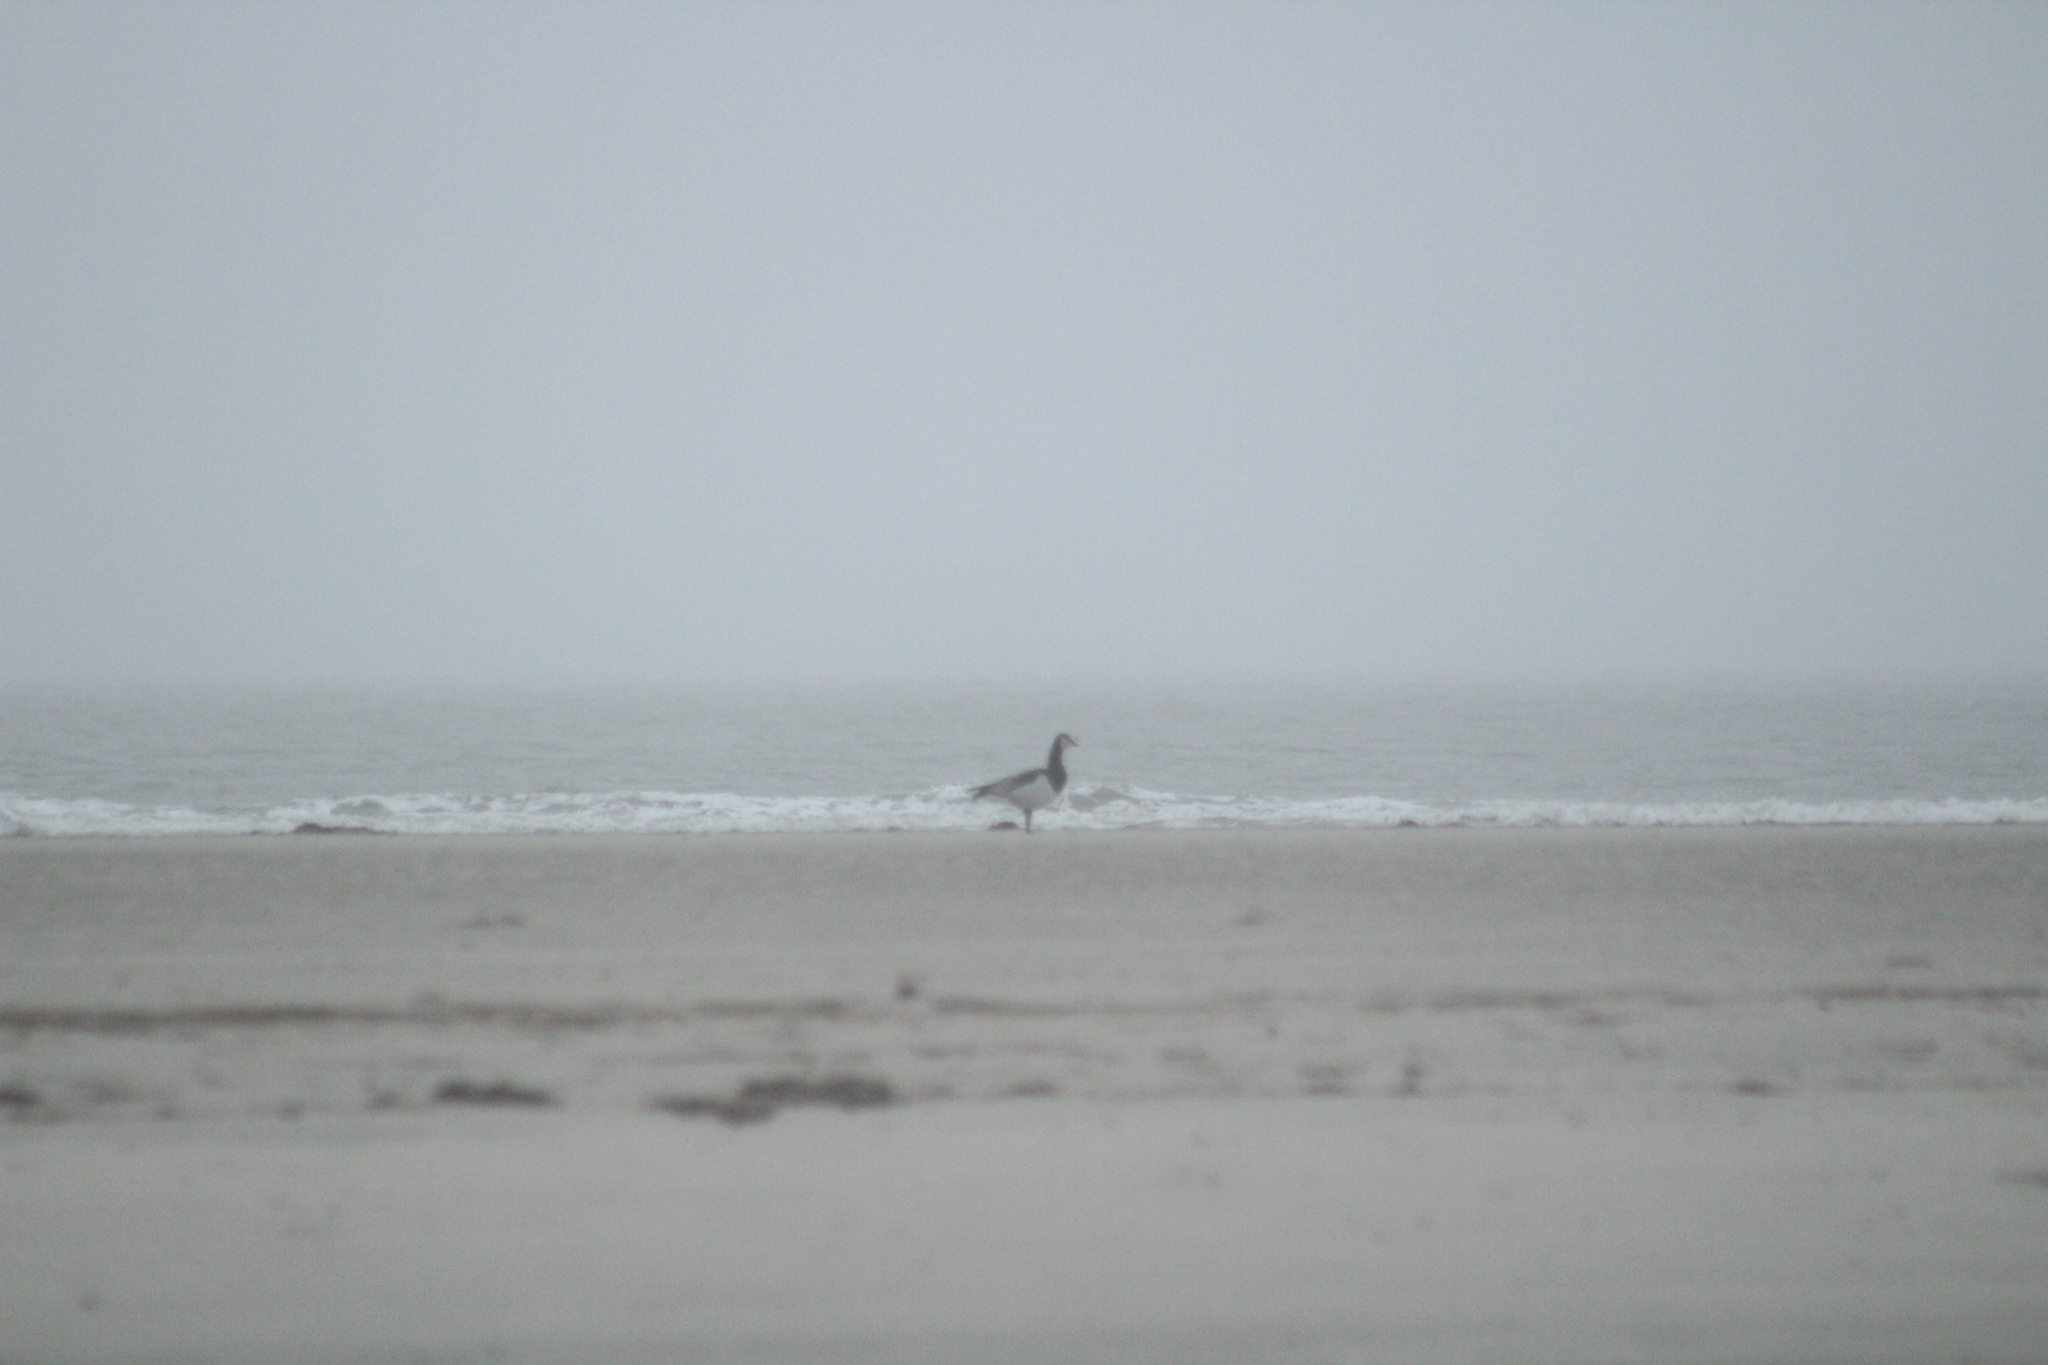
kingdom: Animalia
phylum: Chordata
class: Aves
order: Anseriformes
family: Anatidae
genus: Branta
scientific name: Branta leucopsis
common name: Barnacle goose
